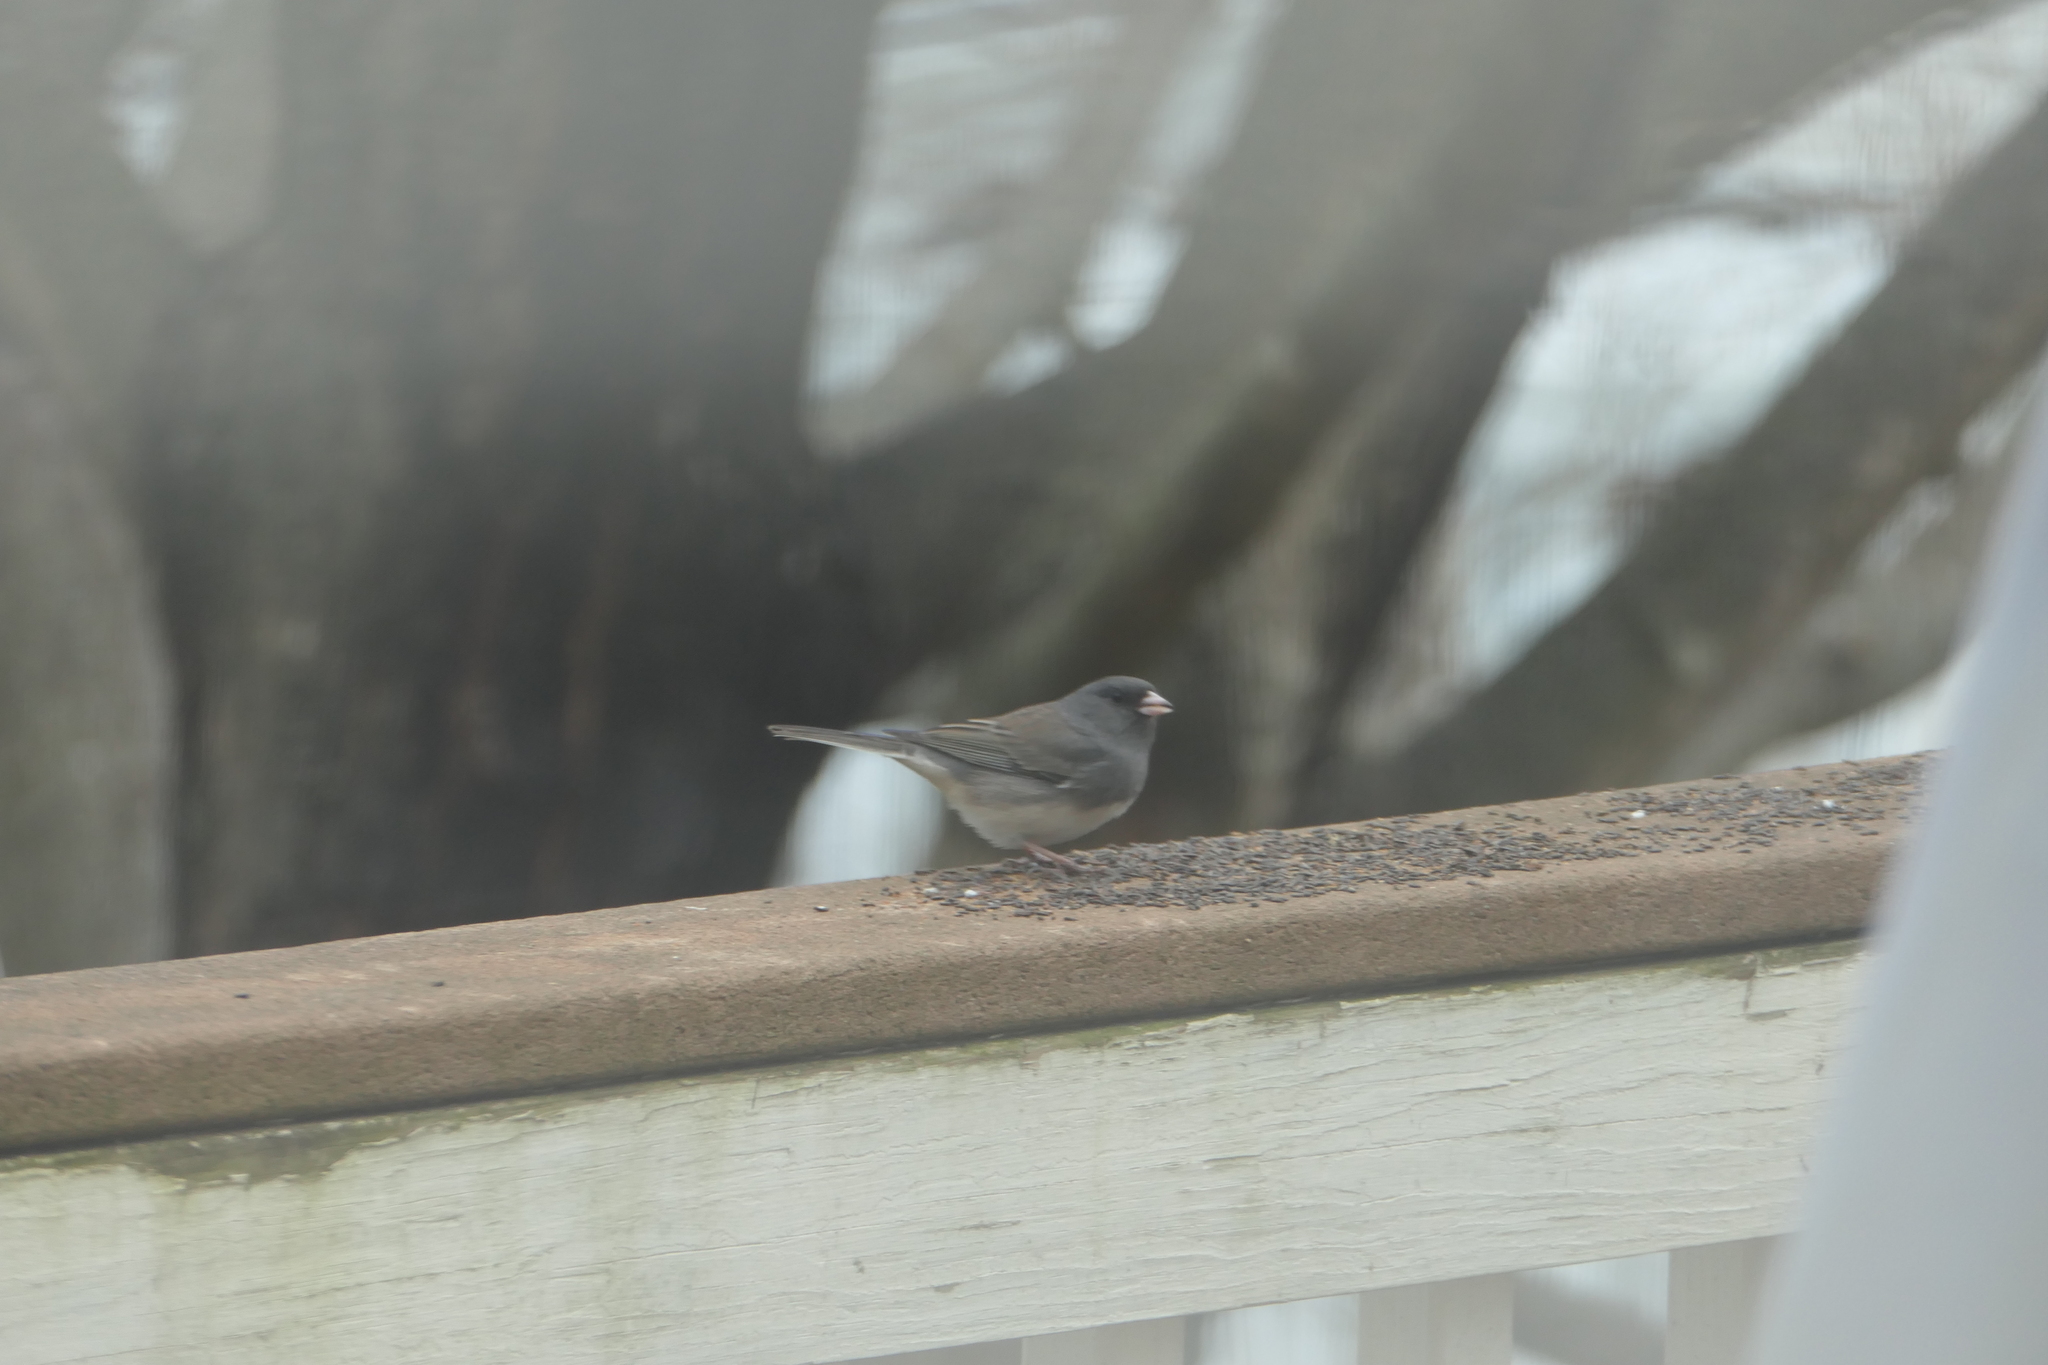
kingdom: Animalia
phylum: Chordata
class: Aves
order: Passeriformes
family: Passerellidae
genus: Junco
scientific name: Junco hyemalis
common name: Dark-eyed junco
